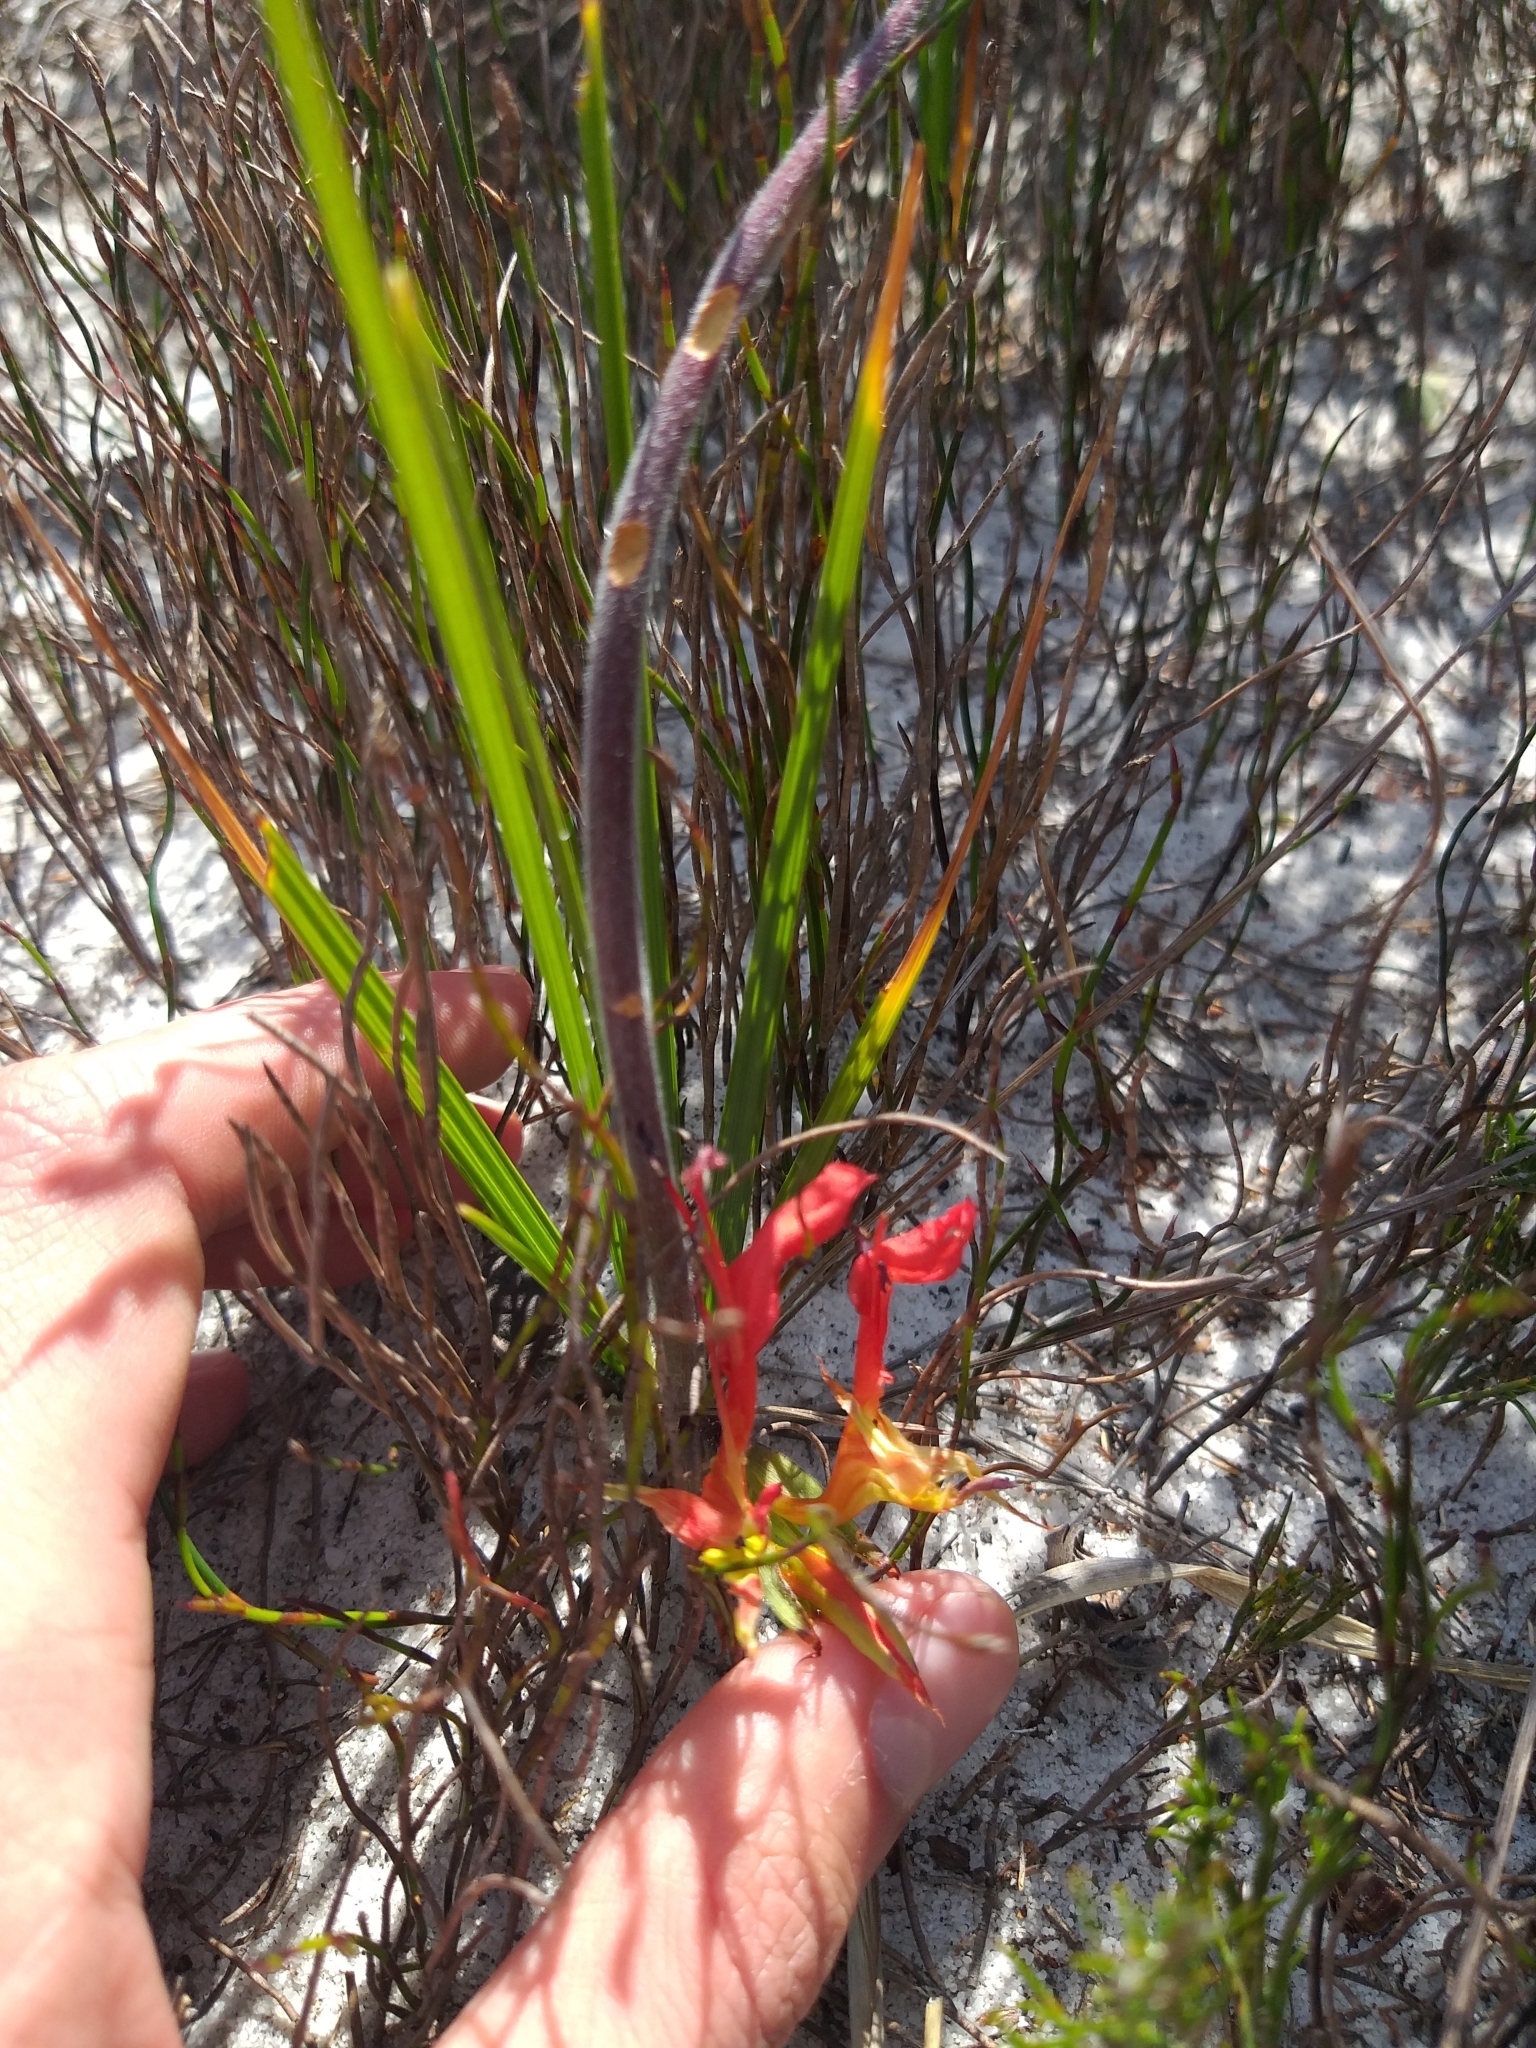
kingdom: Plantae
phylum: Tracheophyta
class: Liliopsida
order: Asparagales
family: Iridaceae
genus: Babiana
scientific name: Babiana ringens
